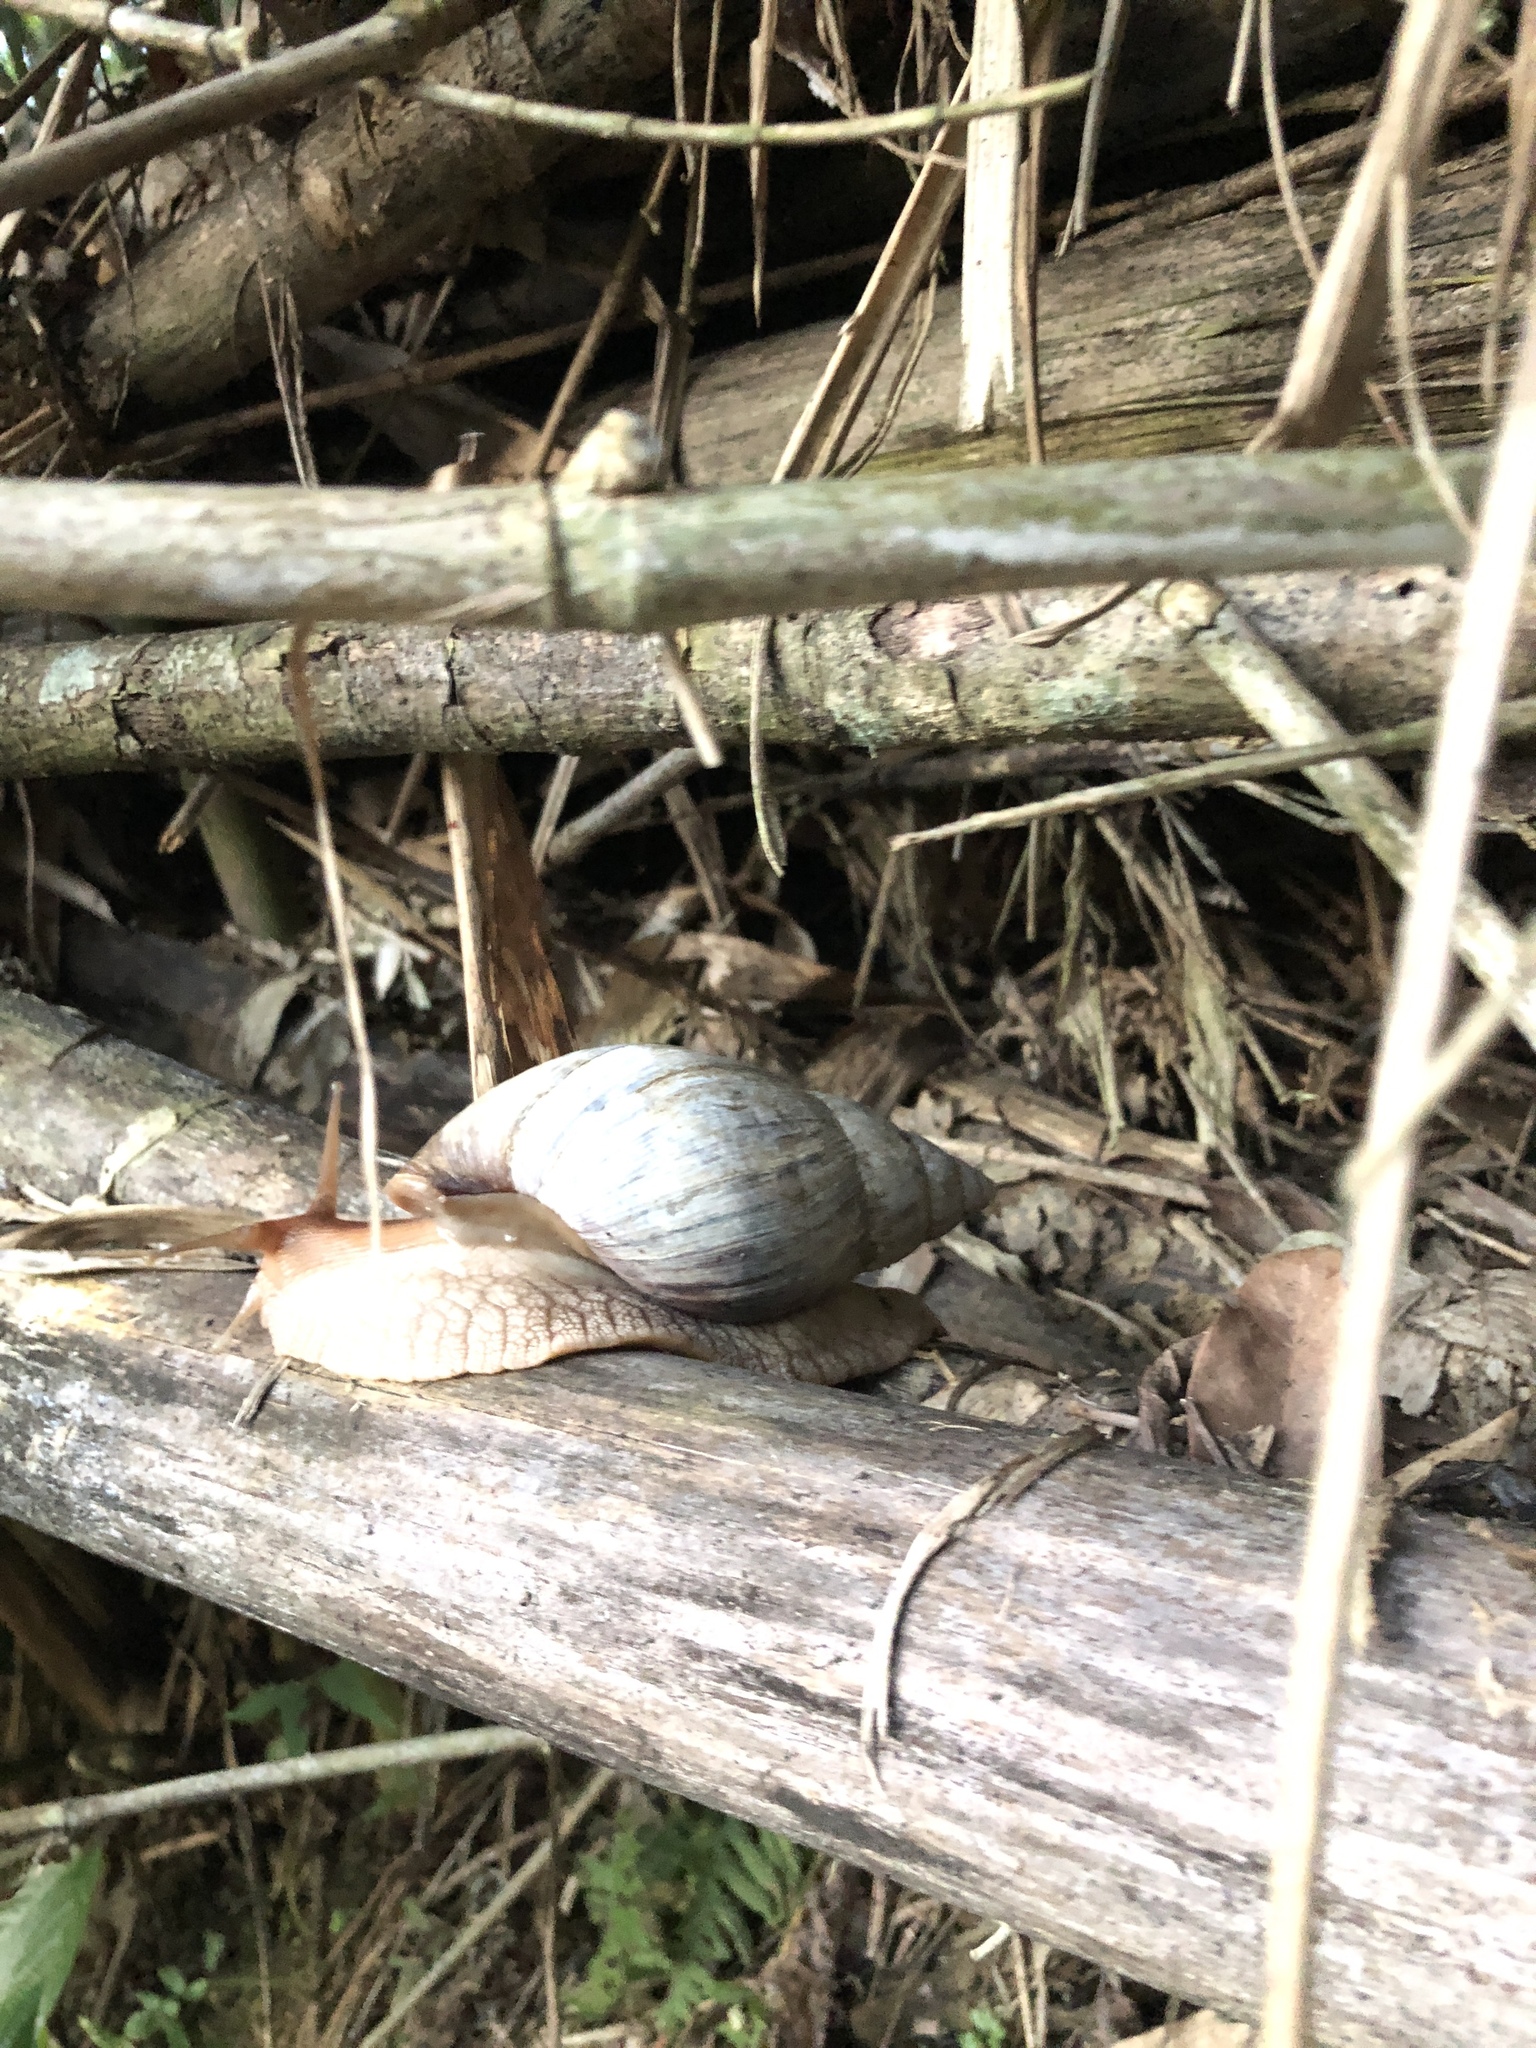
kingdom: Animalia
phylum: Mollusca
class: Gastropoda
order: Stylommatophora
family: Achatinidae
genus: Lissachatina
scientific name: Lissachatina immaculata
